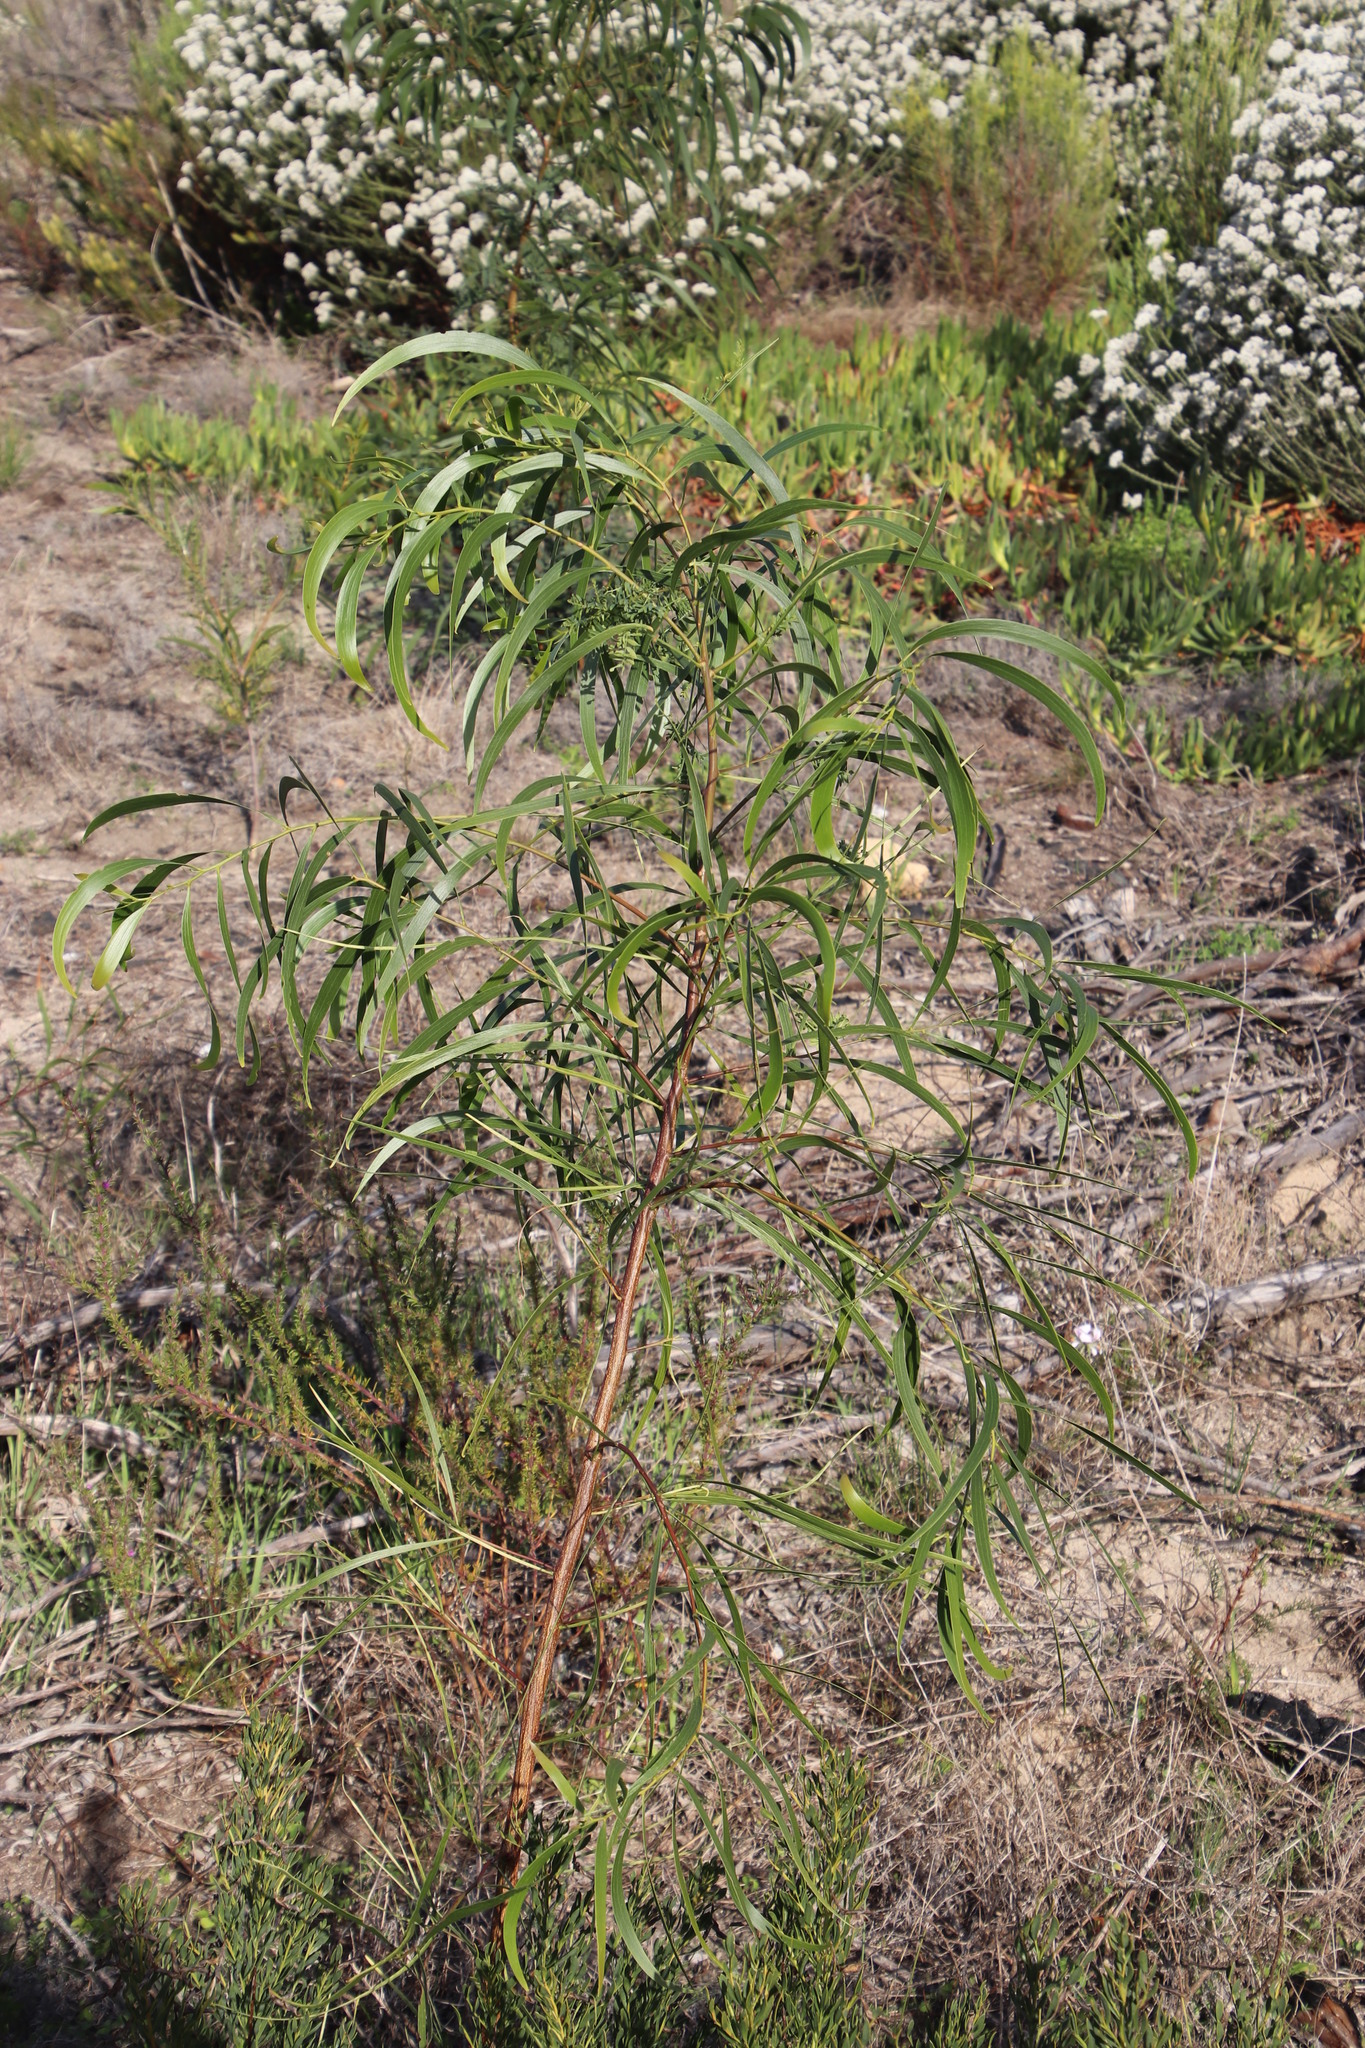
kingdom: Plantae
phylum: Tracheophyta
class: Magnoliopsida
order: Fabales
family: Fabaceae
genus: Acacia
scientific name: Acacia implexa
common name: Black wattle
